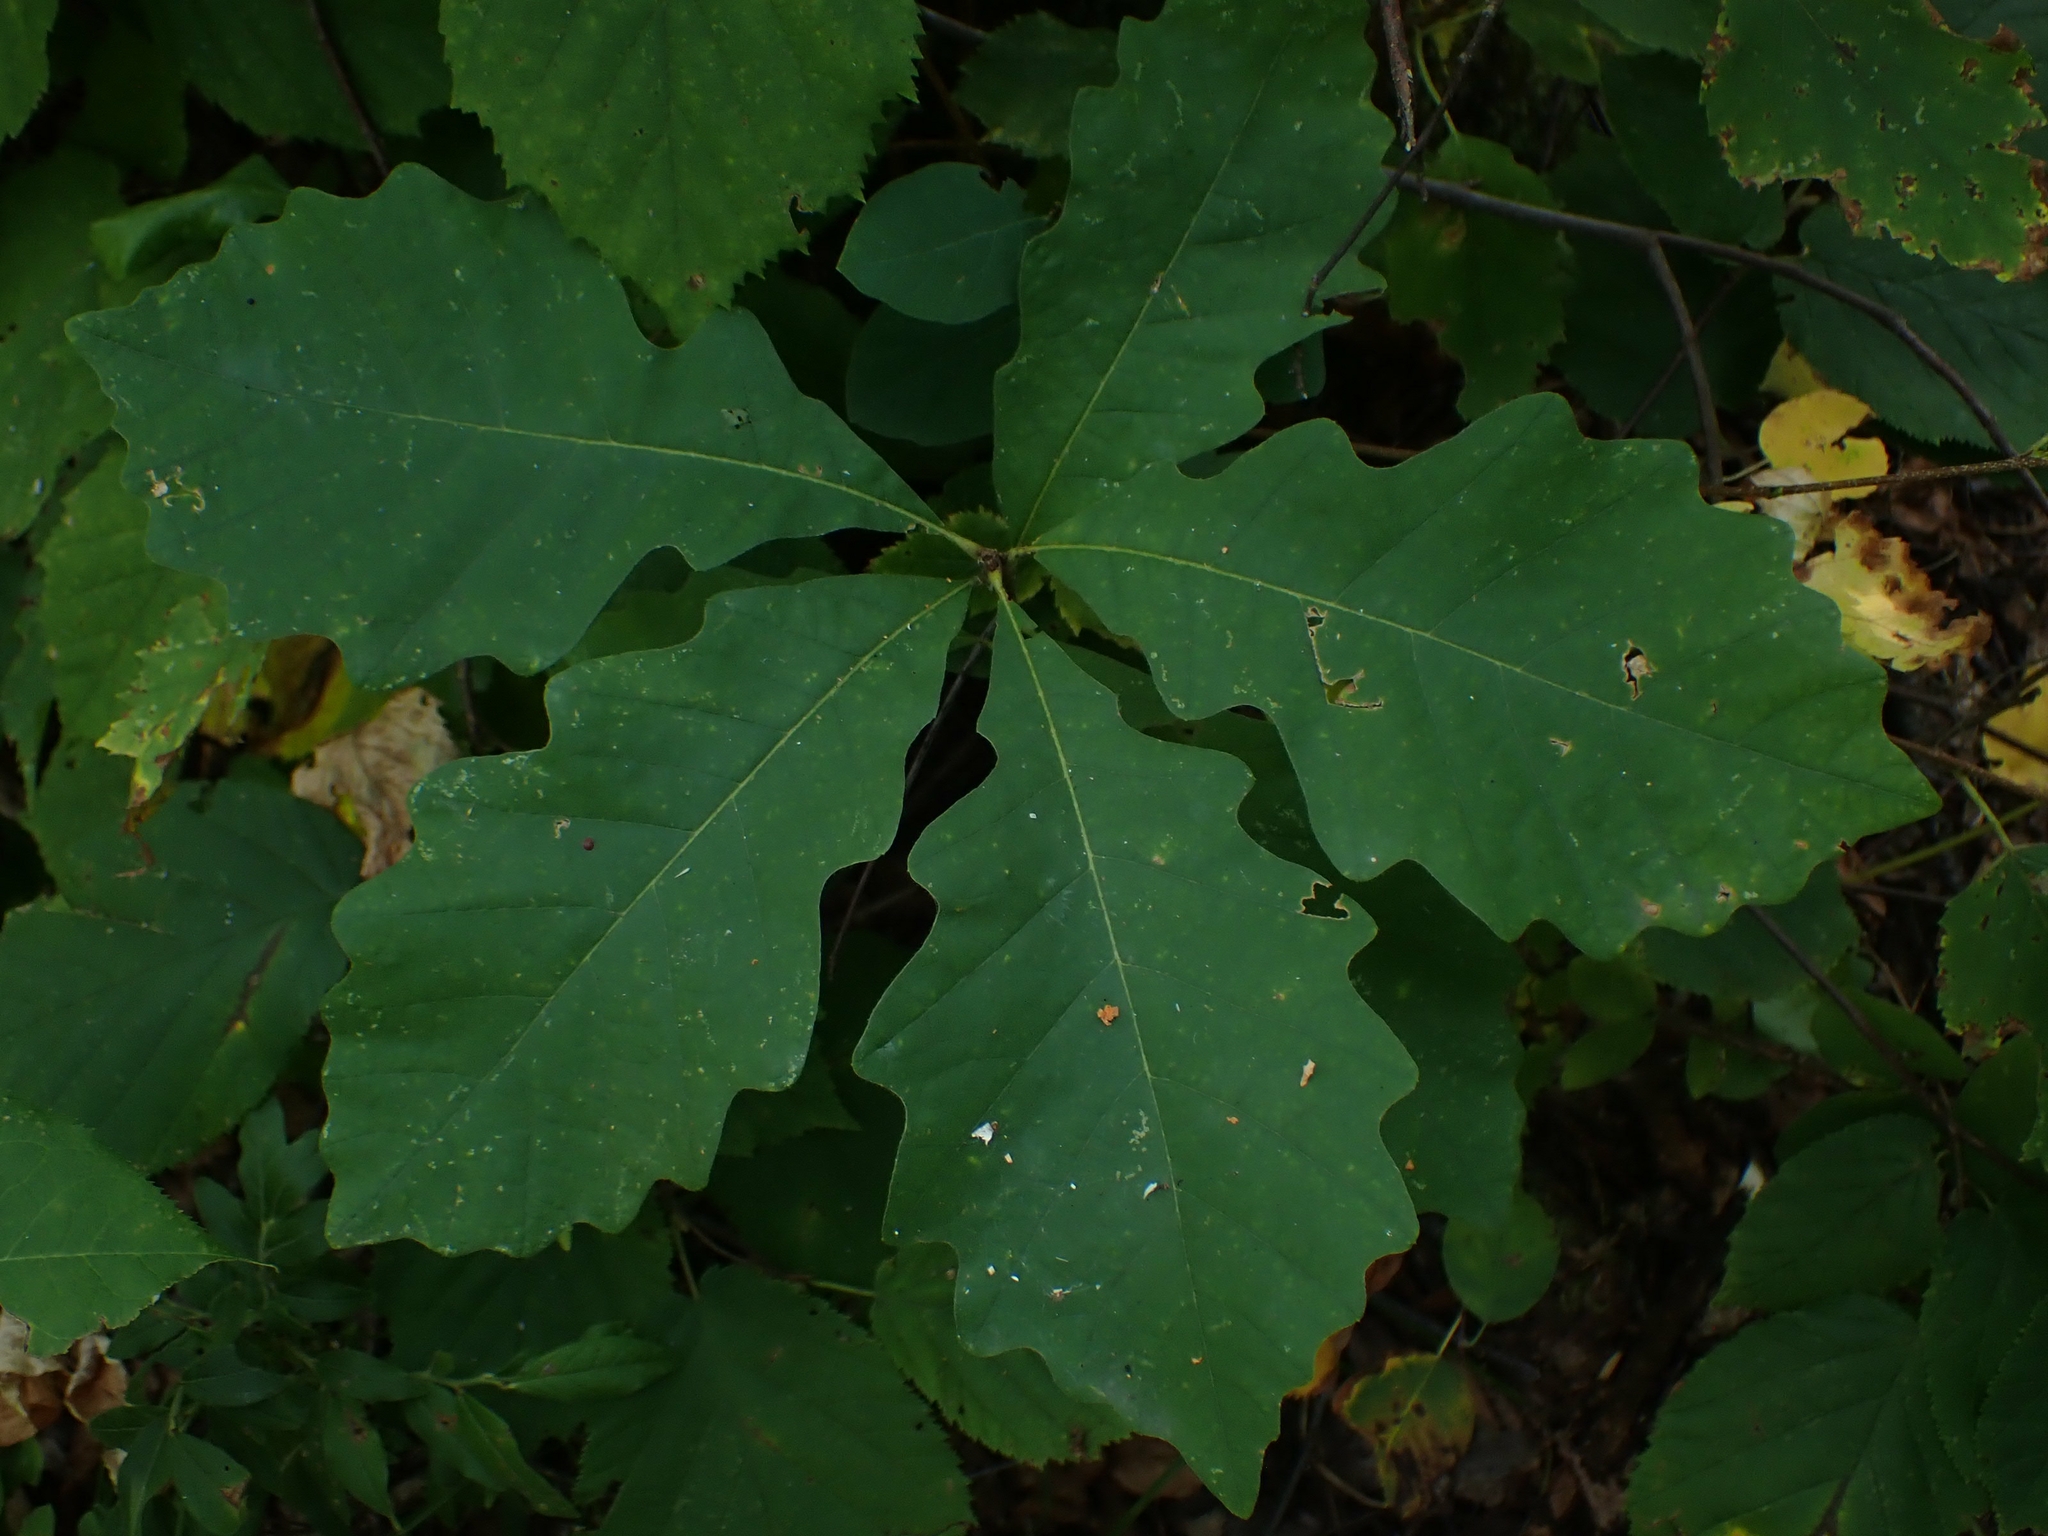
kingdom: Plantae
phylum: Tracheophyta
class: Magnoliopsida
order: Fagales
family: Fagaceae
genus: Quercus
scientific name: Quercus macrocarpa
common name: Bur oak
